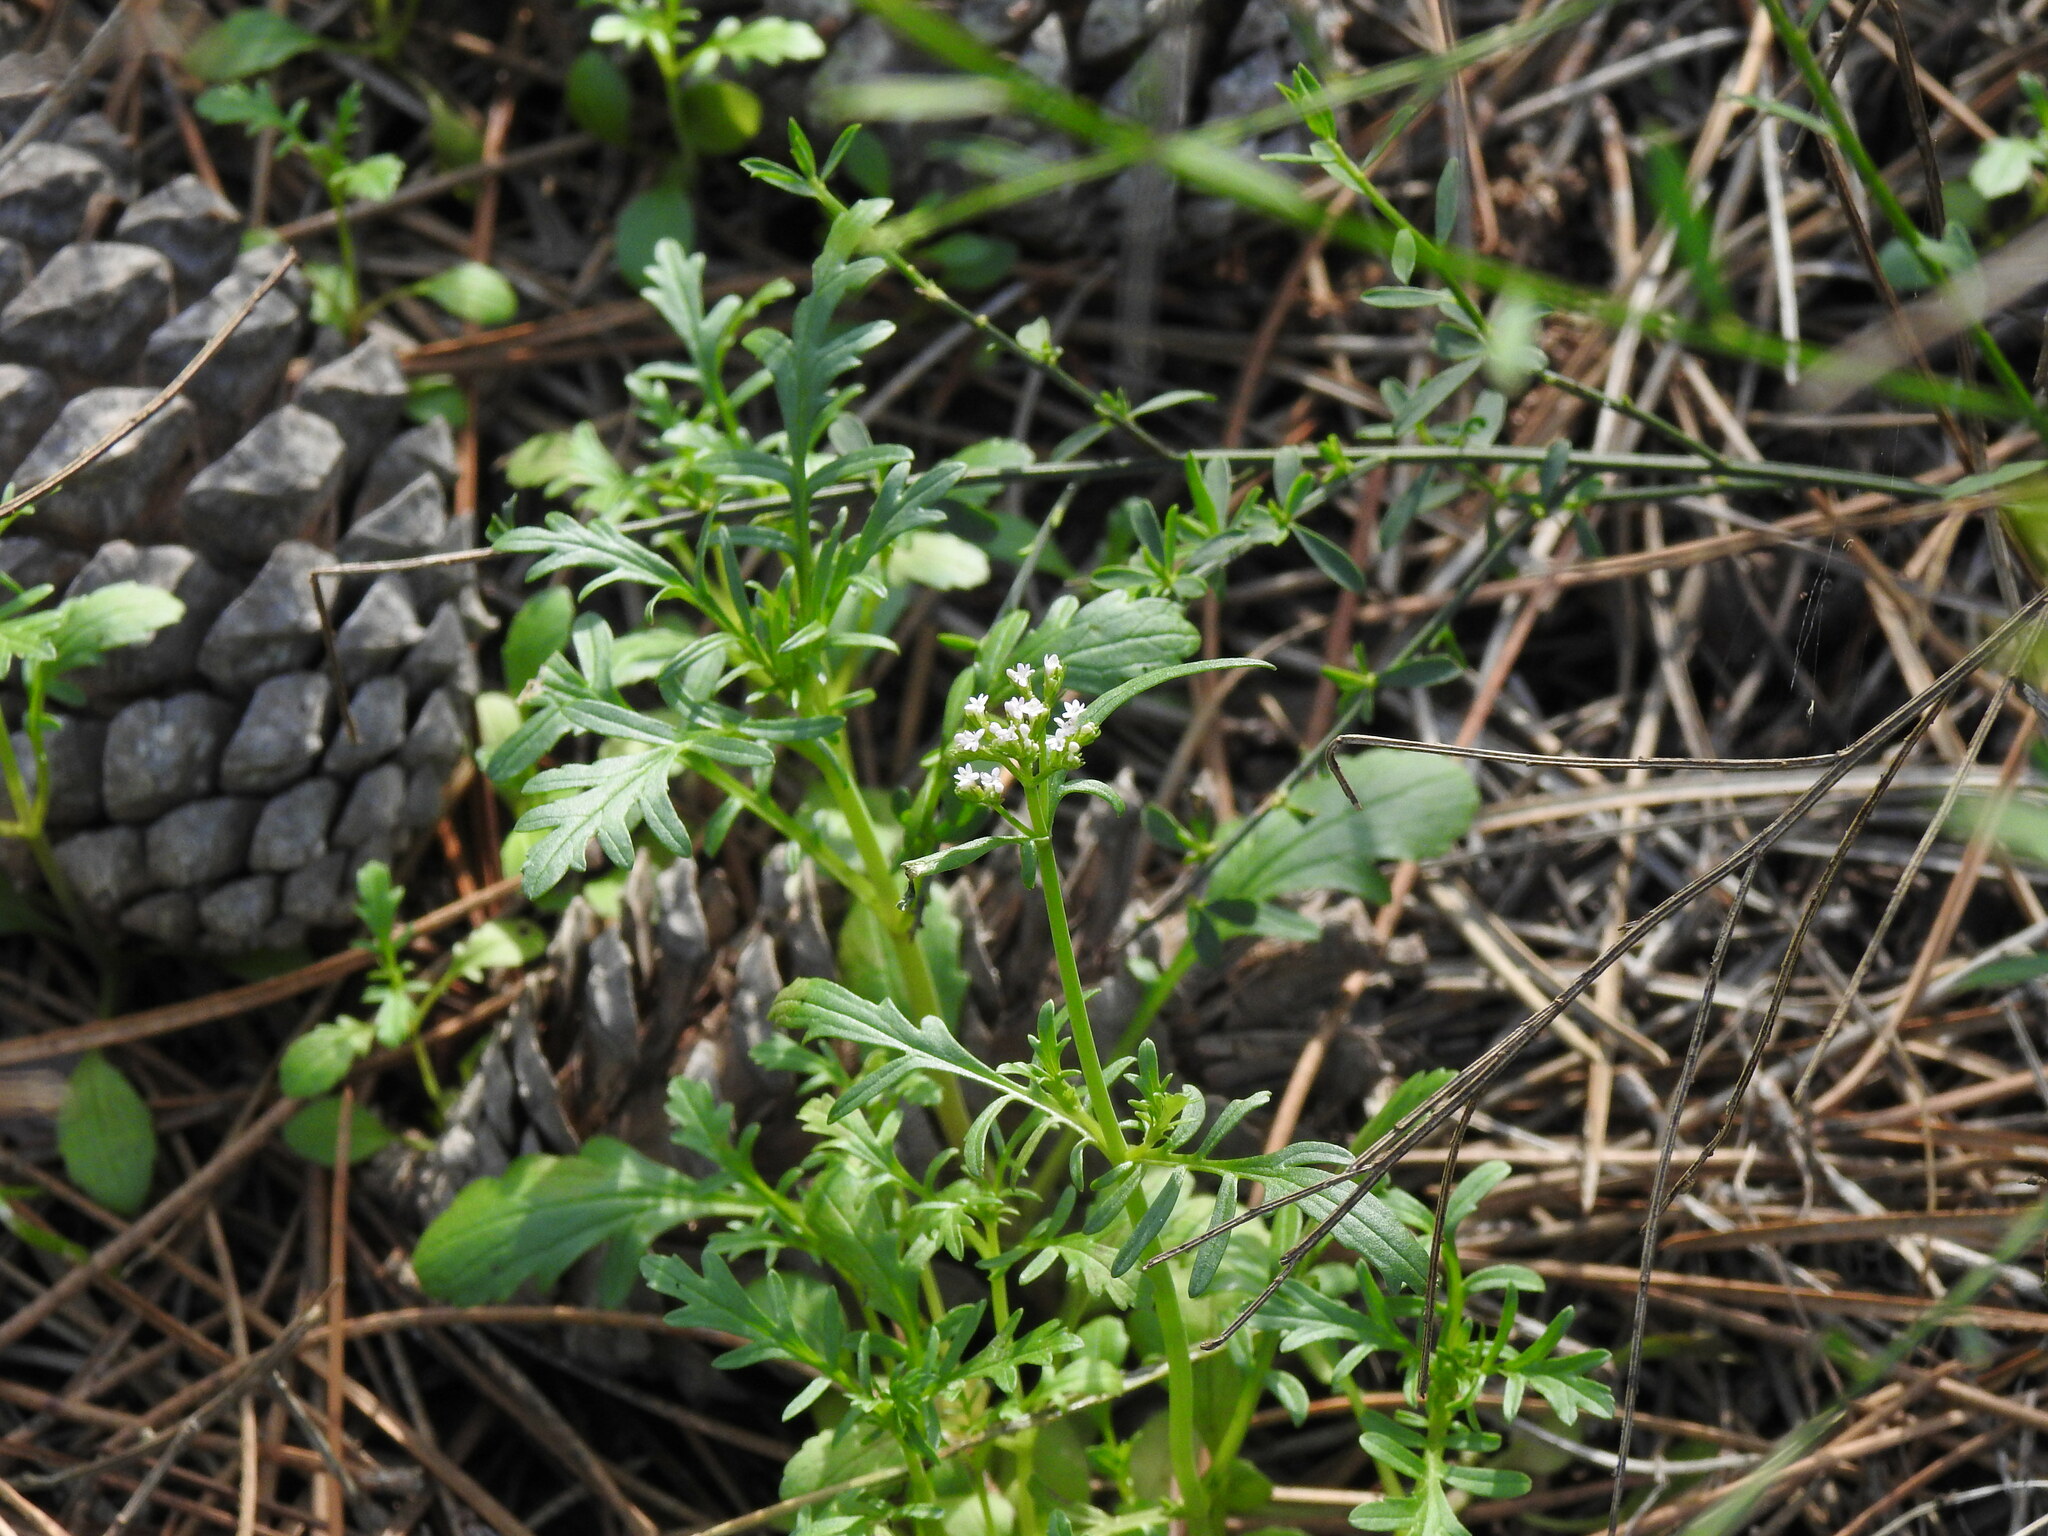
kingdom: Plantae
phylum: Tracheophyta
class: Magnoliopsida
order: Dipsacales
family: Caprifoliaceae
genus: Centranthus
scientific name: Centranthus calcitrapae
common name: Annual valerian
